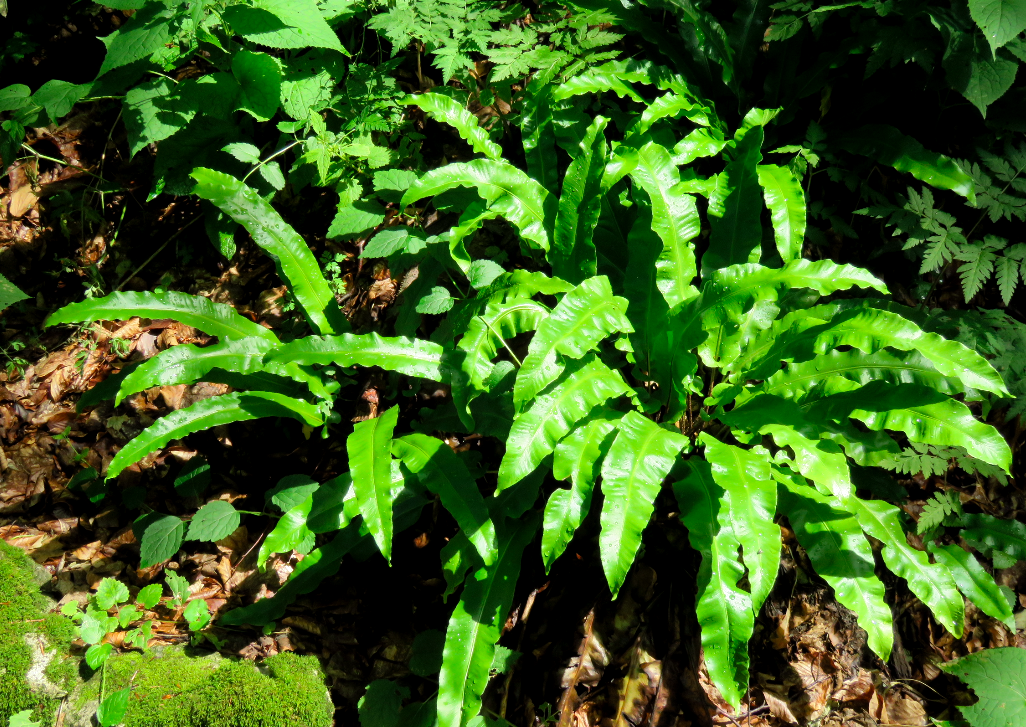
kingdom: Plantae
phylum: Tracheophyta
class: Polypodiopsida
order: Polypodiales
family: Aspleniaceae
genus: Asplenium
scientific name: Asplenium scolopendrium
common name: Hart's-tongue fern
